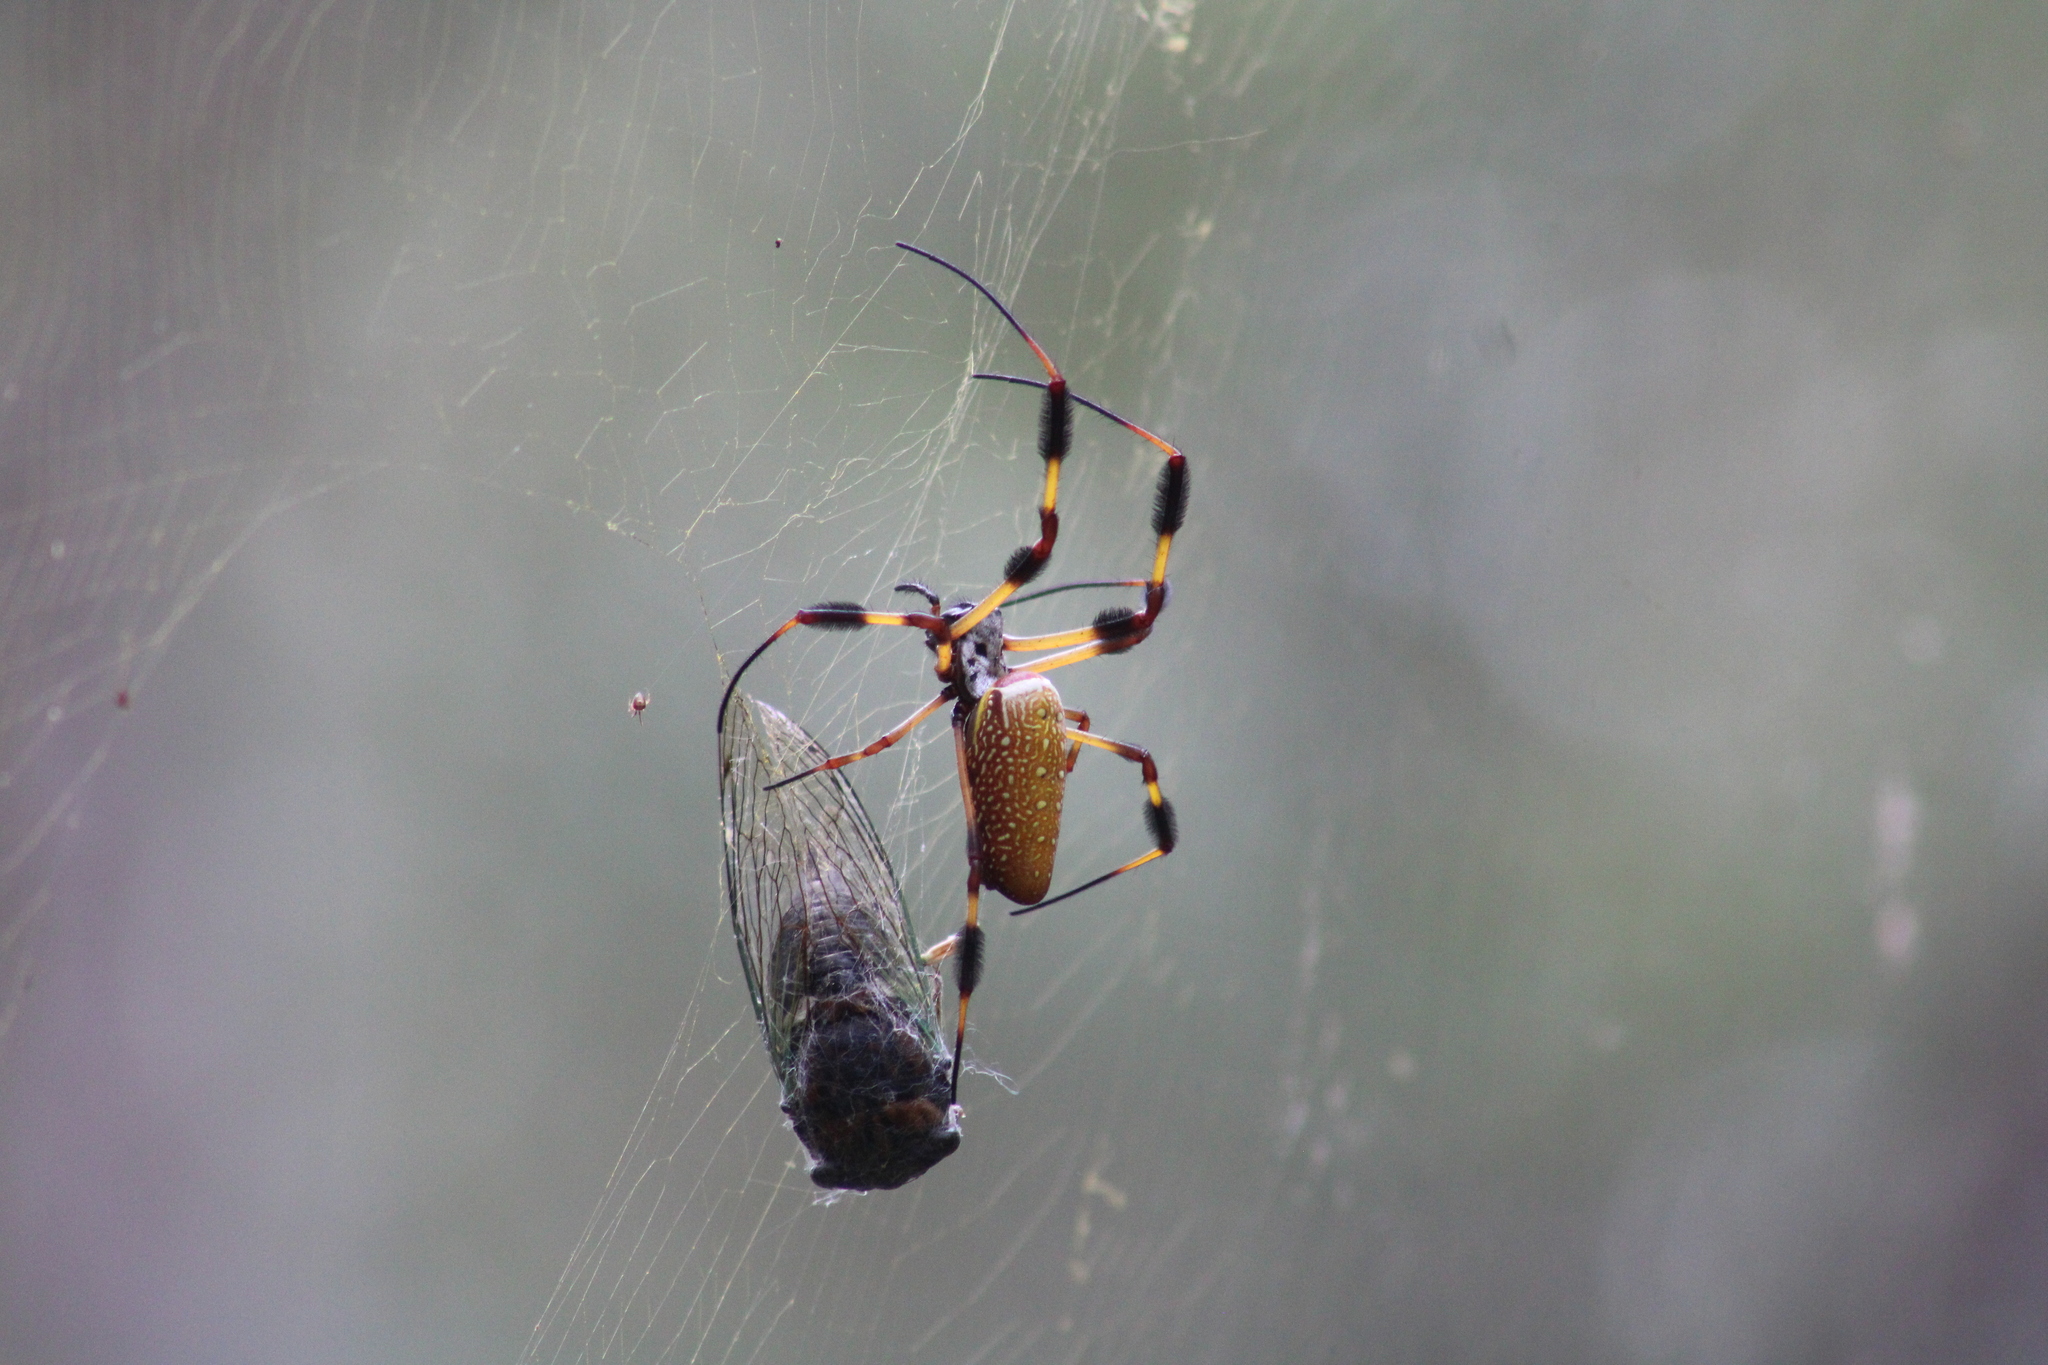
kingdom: Animalia
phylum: Arthropoda
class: Arachnida
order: Araneae
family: Araneidae
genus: Trichonephila
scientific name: Trichonephila clavipes
